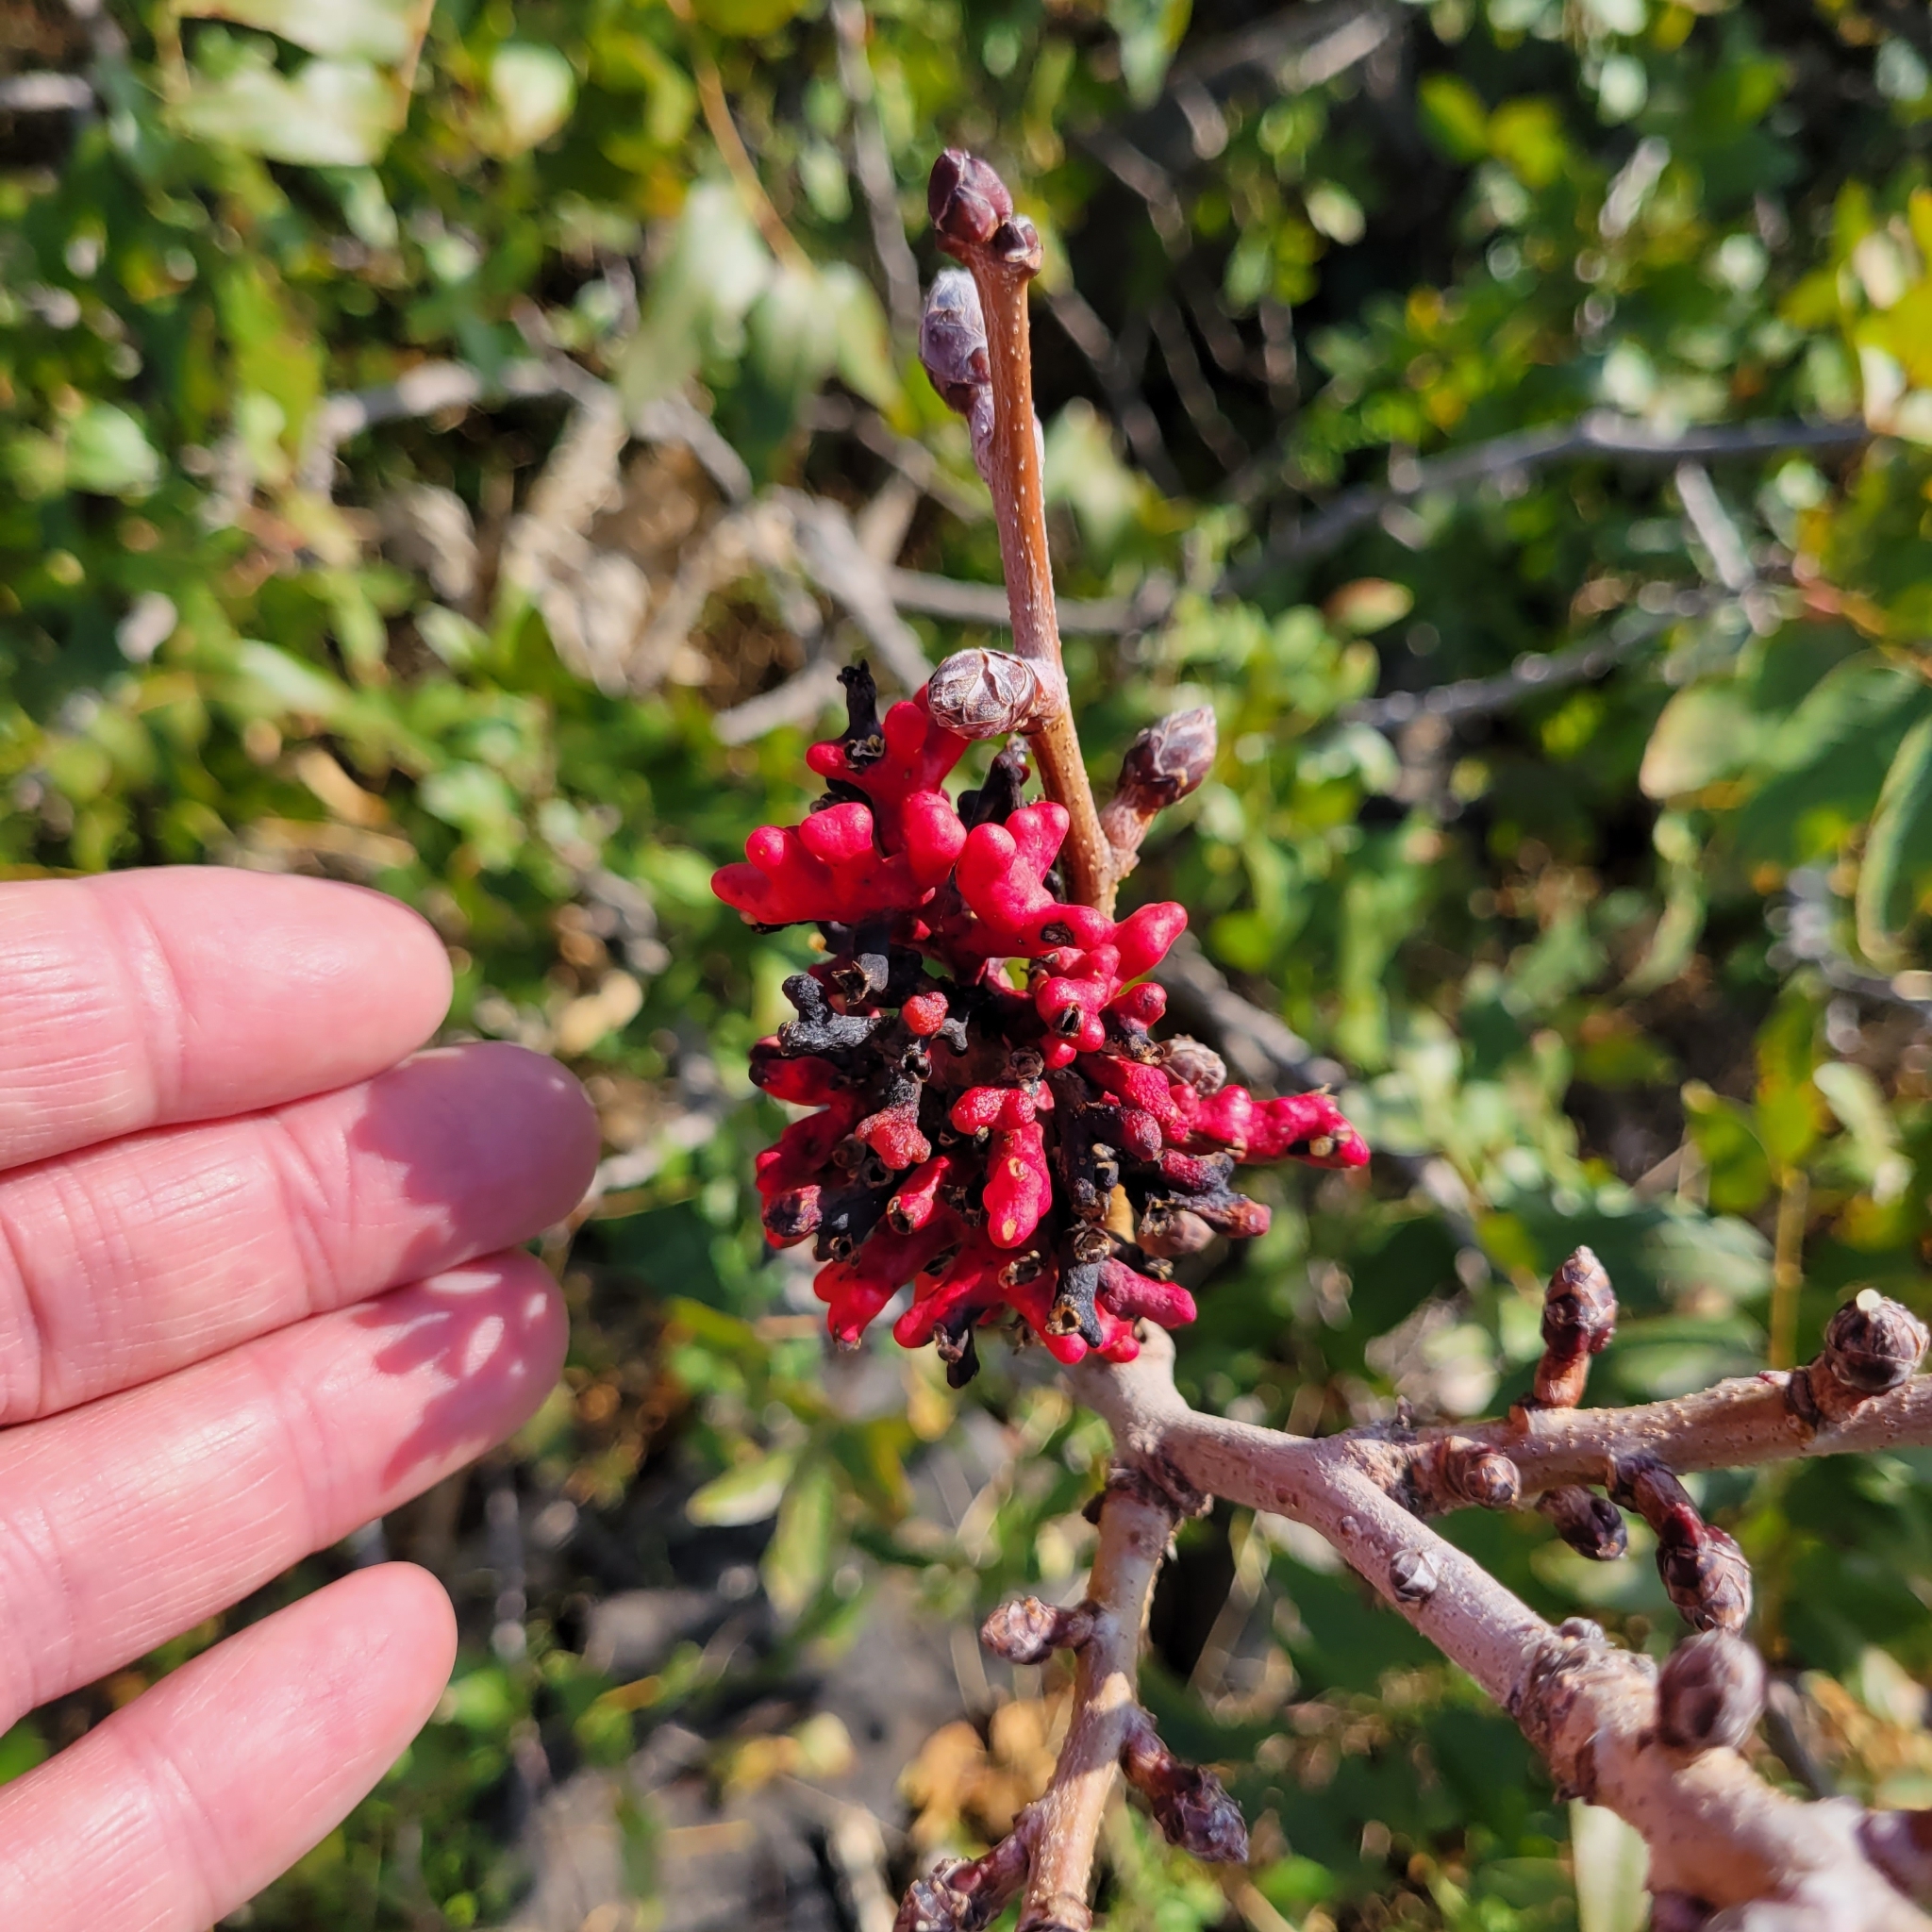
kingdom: Plantae
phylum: Tracheophyta
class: Magnoliopsida
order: Sapindales
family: Anacardiaceae
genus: Pistacia
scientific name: Pistacia atlantica
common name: Mt. atlas mastic tree
